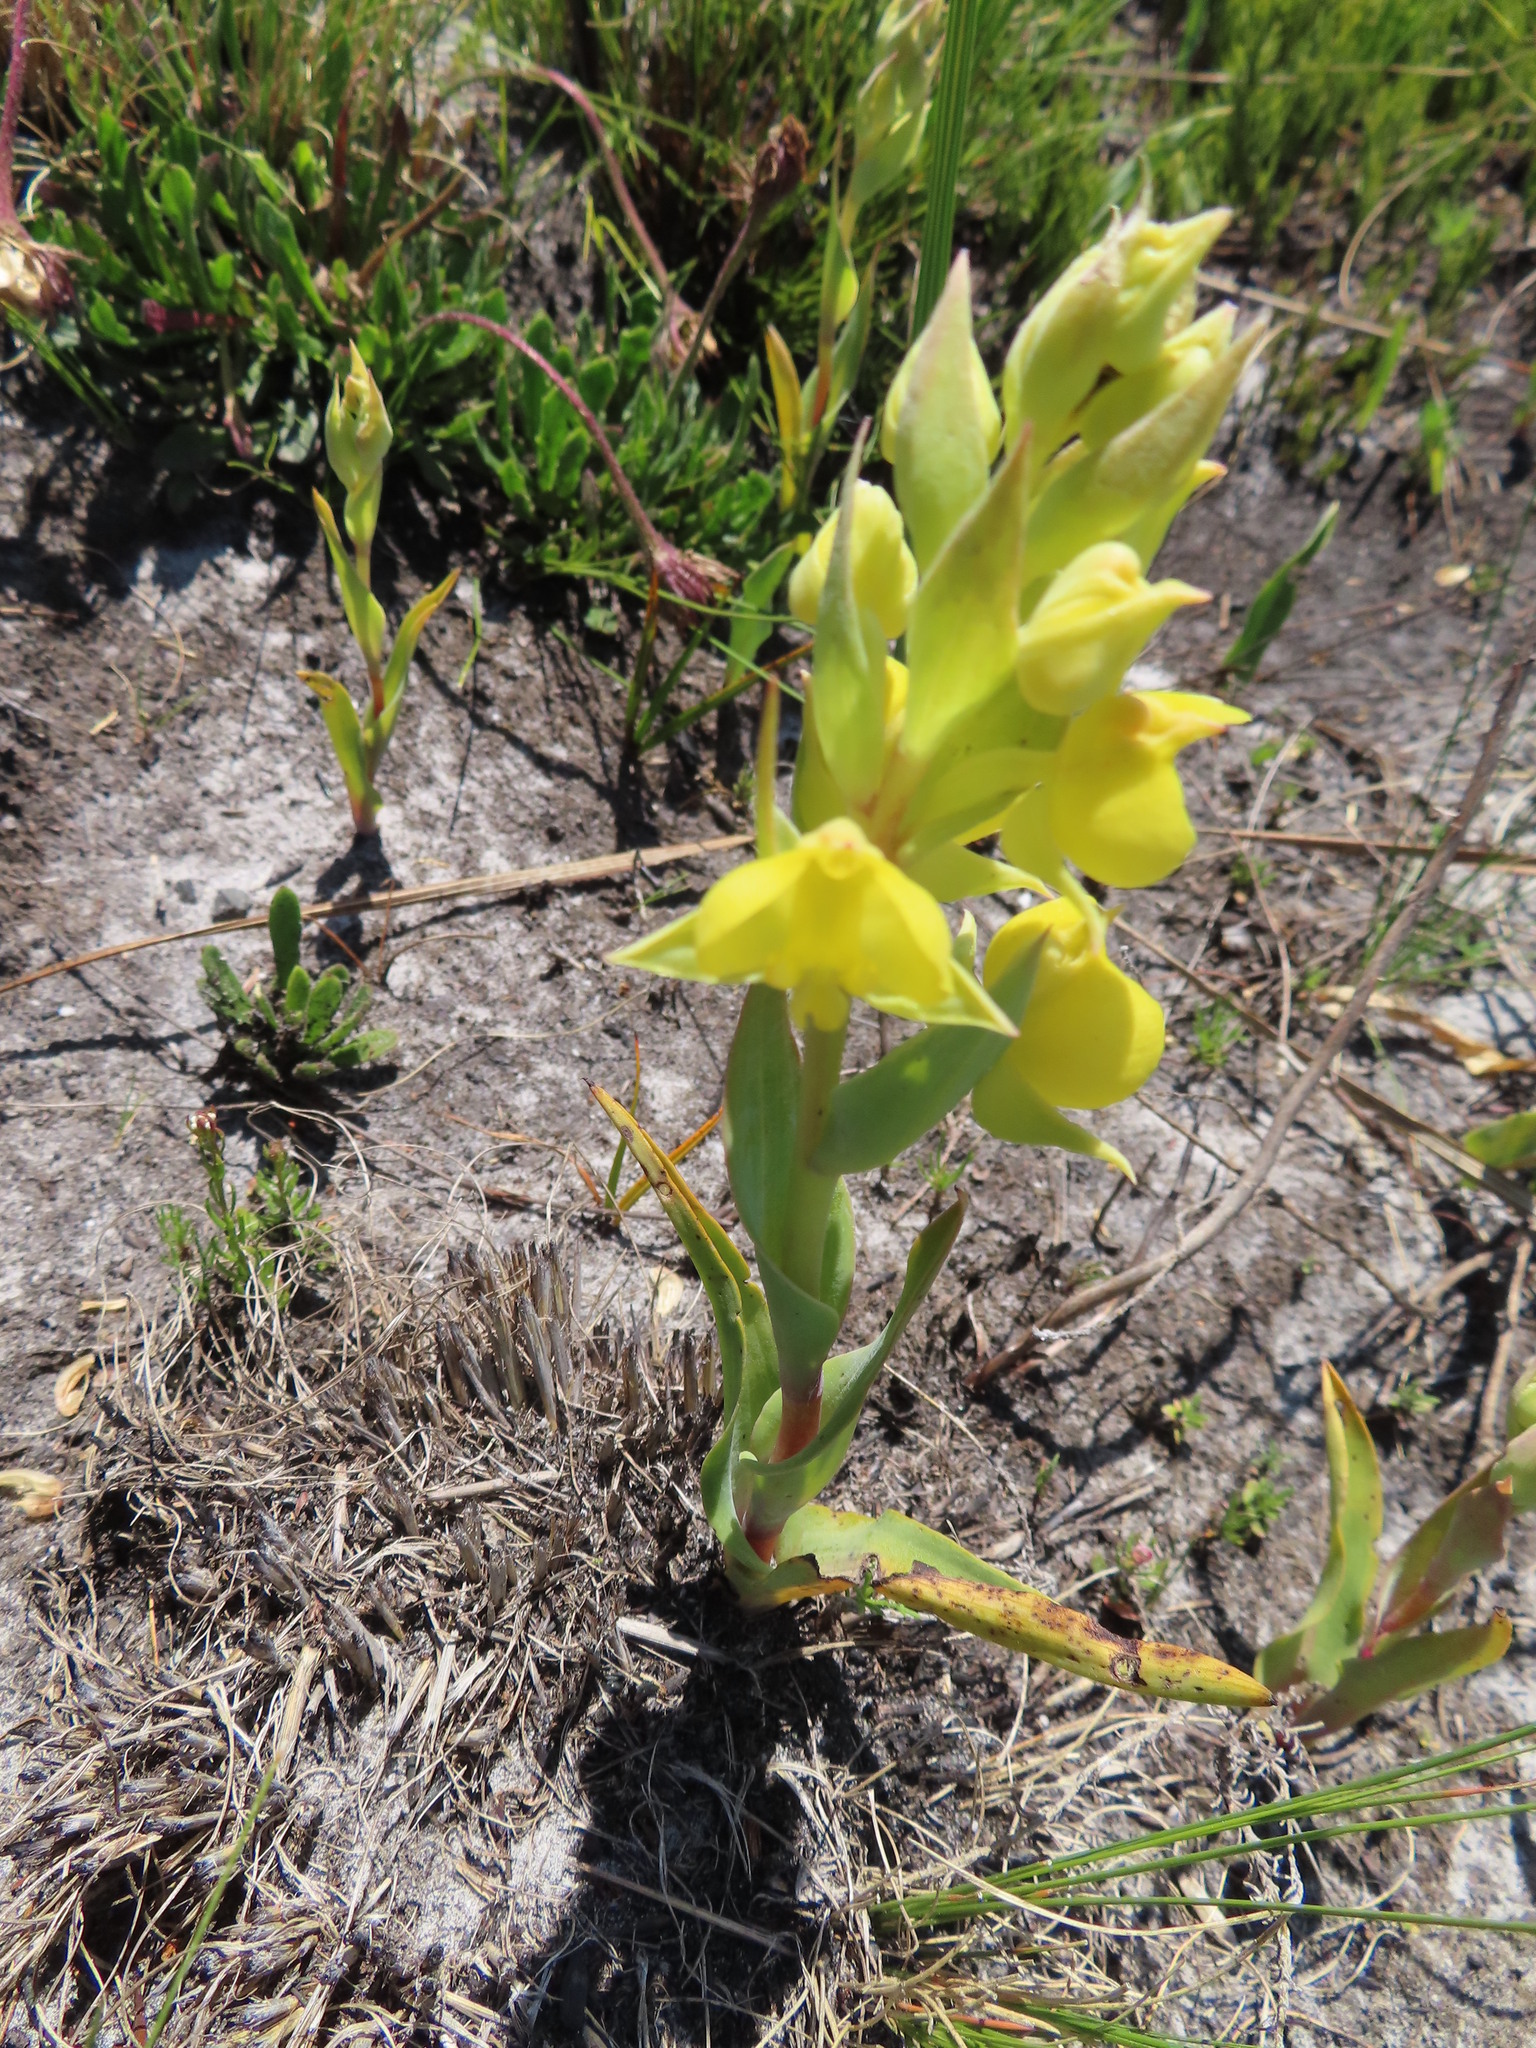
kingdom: Plantae
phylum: Tracheophyta
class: Liliopsida
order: Asparagales
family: Orchidaceae
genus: Pterygodium
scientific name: Pterygodium acutifolium
